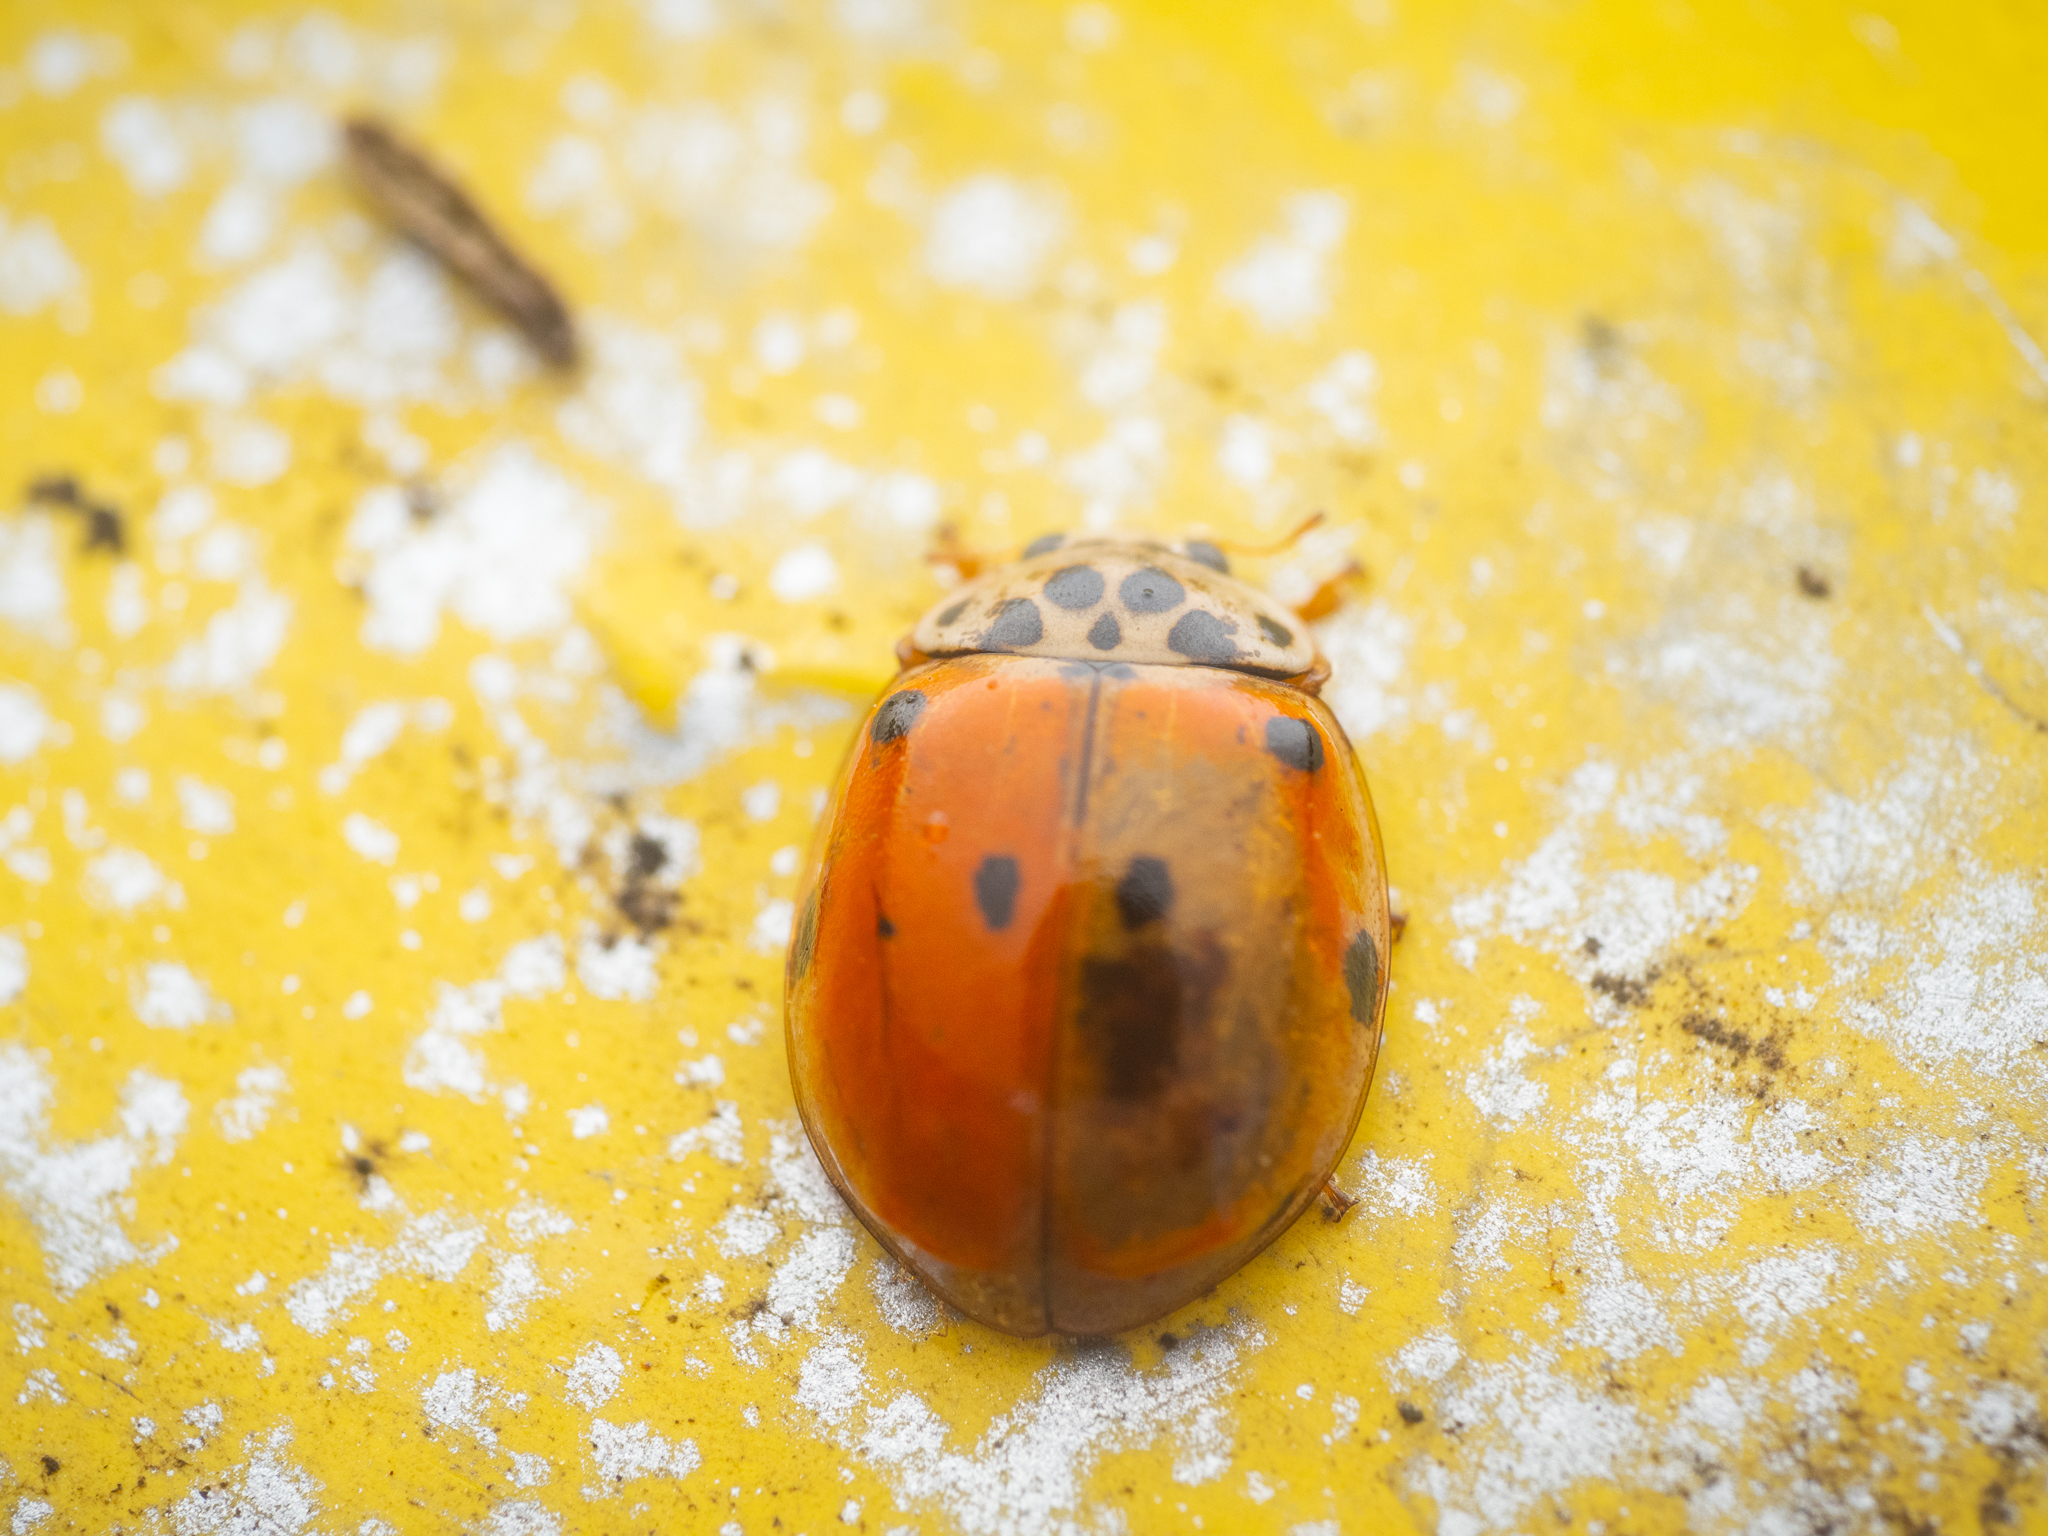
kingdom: Animalia
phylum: Arthropoda
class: Insecta
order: Coleoptera
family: Coccinellidae
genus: Adalia
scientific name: Adalia decempunctata
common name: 10-spot ladybird
